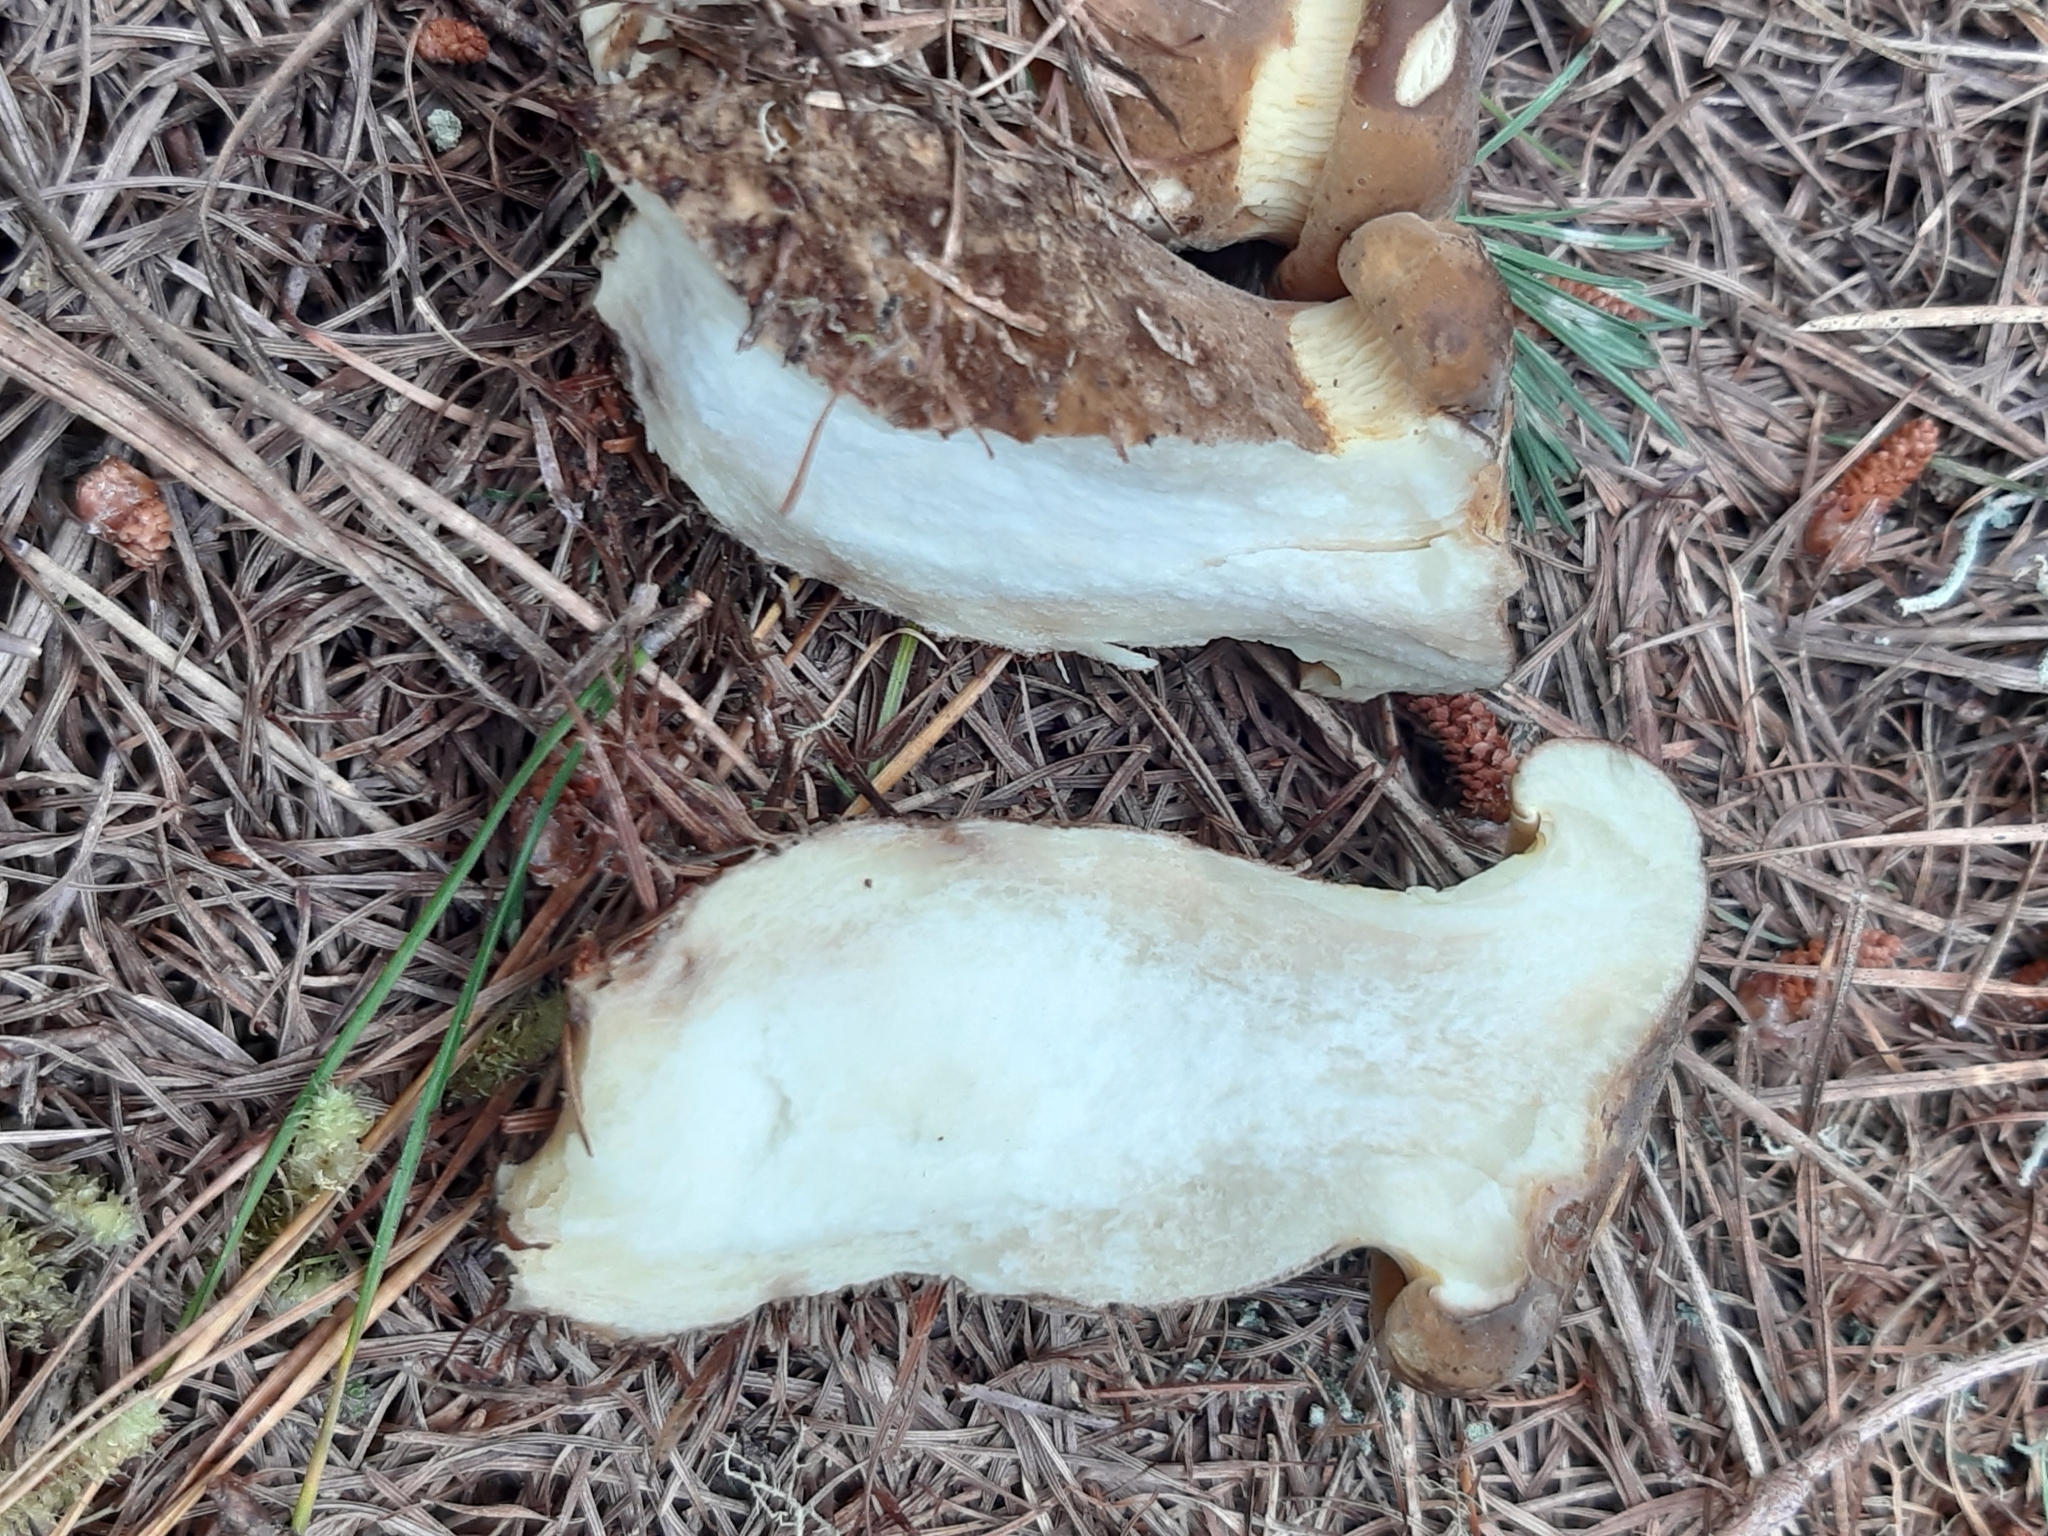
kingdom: Fungi
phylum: Basidiomycota
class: Agaricomycetes
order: Boletales
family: Tapinellaceae
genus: Tapinella
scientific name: Tapinella atrotomentosa
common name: Velvet rollrim
